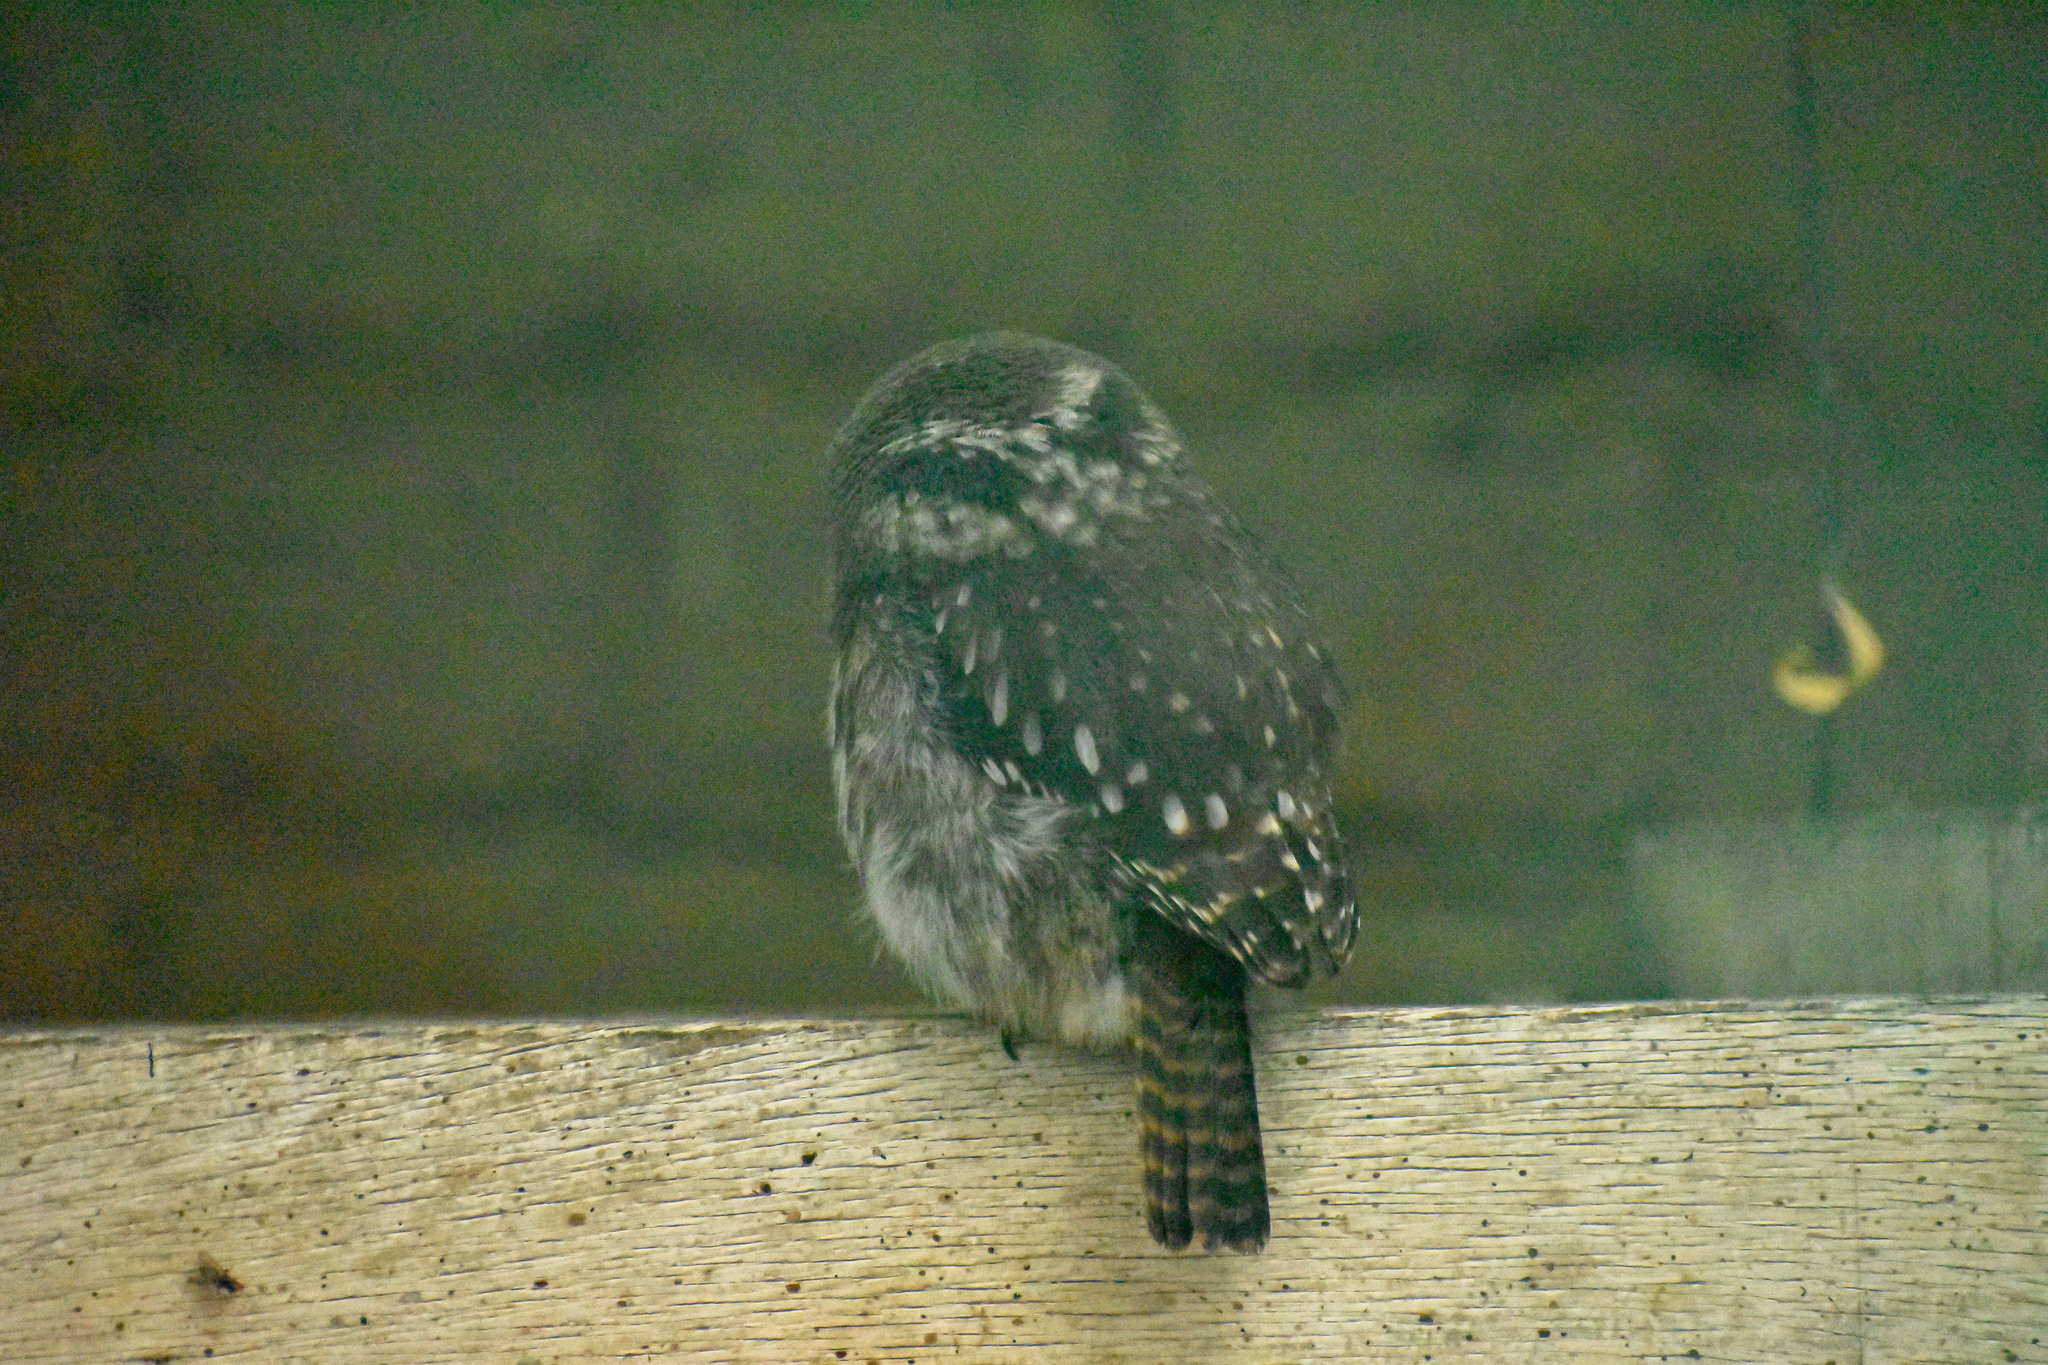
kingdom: Animalia
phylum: Chordata
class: Aves
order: Strigiformes
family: Strigidae
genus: Glaucidium
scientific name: Glaucidium nana
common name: Austral pygmy-owl
